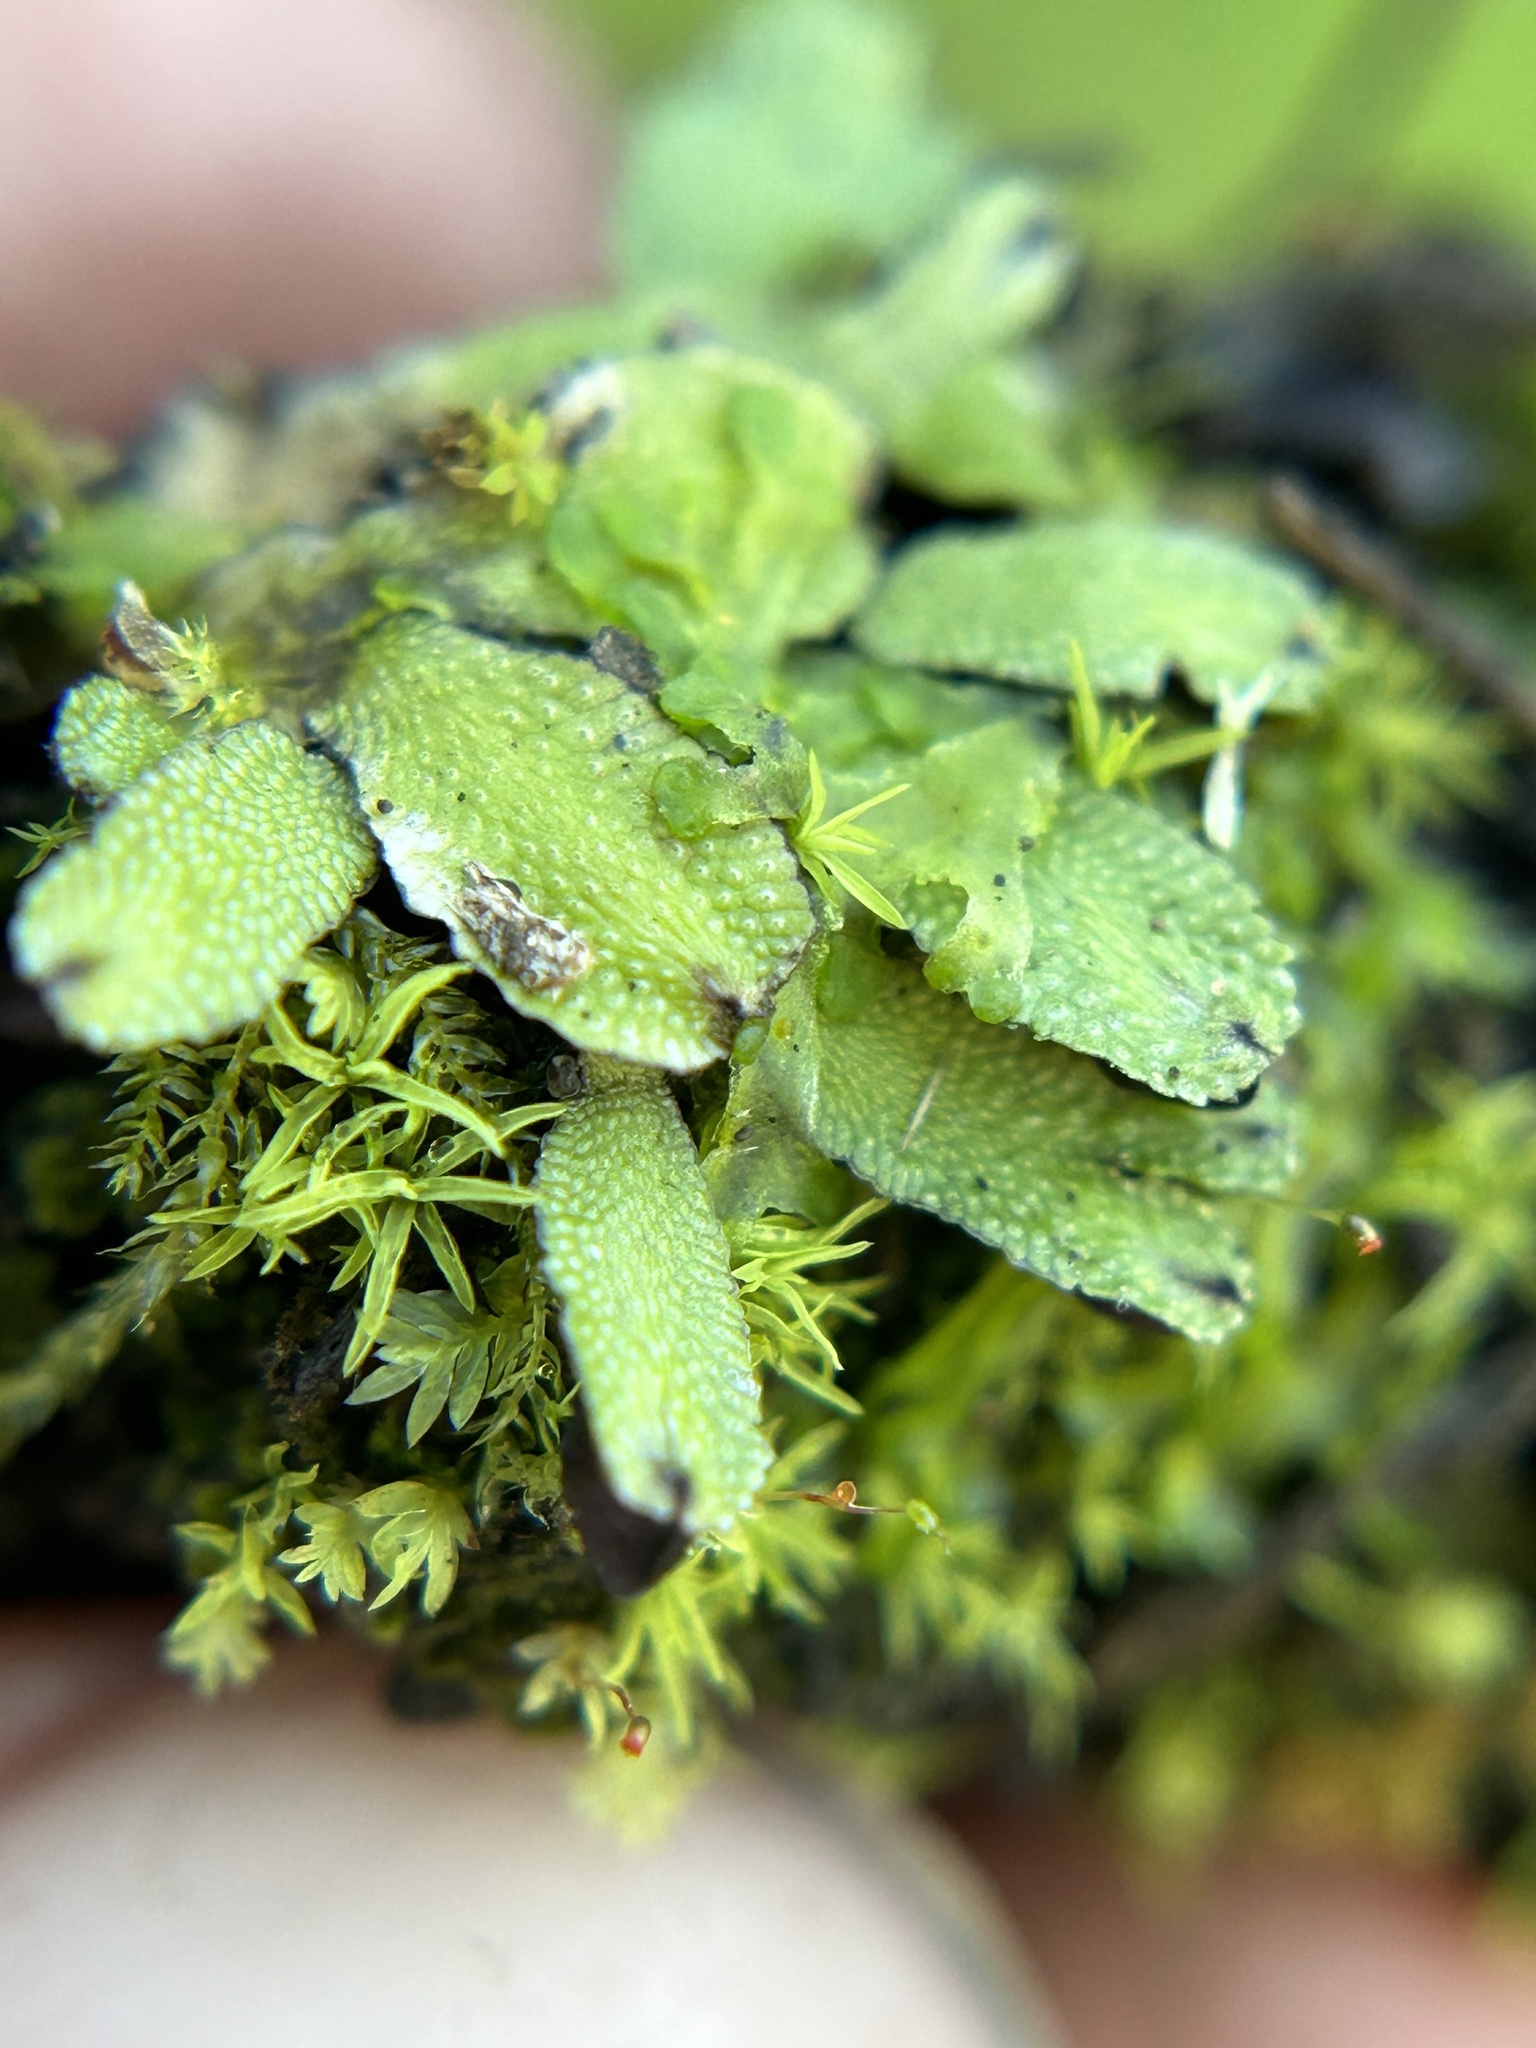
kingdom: Plantae
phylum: Marchantiophyta
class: Marchantiopsida
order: Marchantiales
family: Targioniaceae
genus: Targionia
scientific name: Targionia hypophylla
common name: Orobus-seed liverwort
